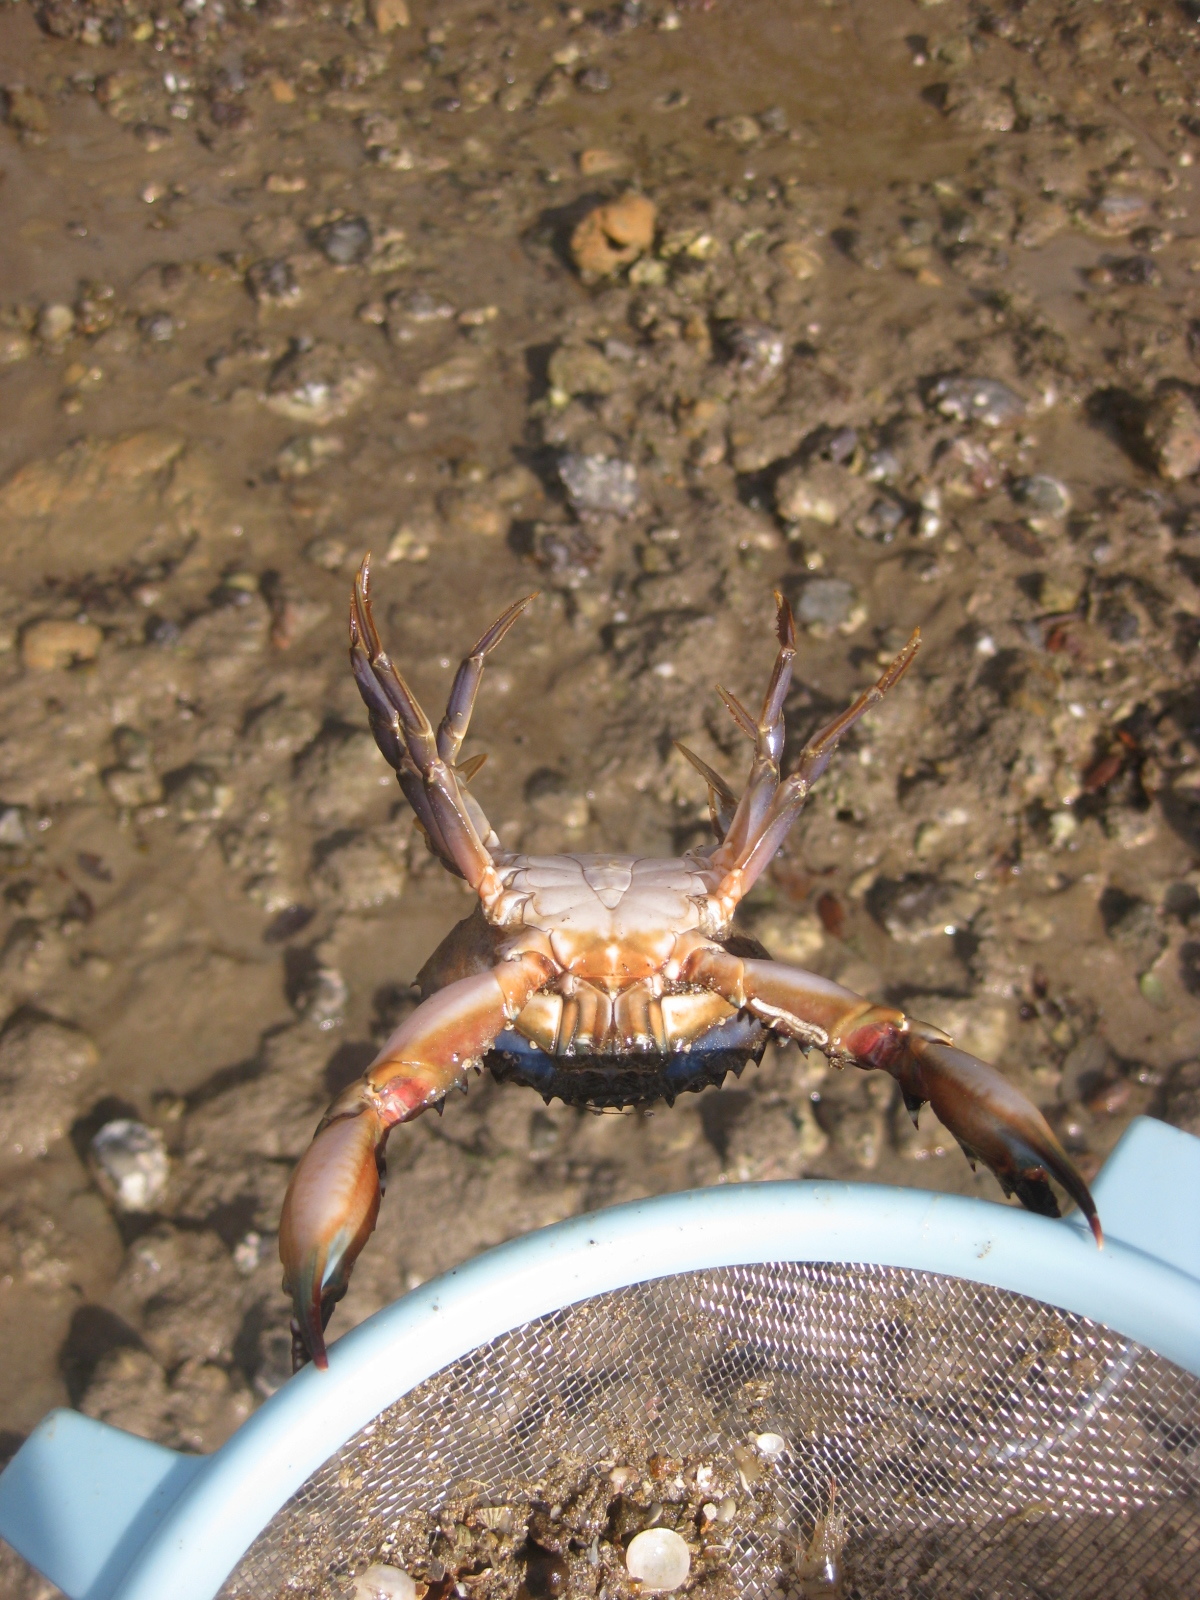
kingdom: Animalia
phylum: Arthropoda
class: Malacostraca
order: Decapoda
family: Portunidae
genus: Charybdis
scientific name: Charybdis japonica
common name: Asian paddle crab
